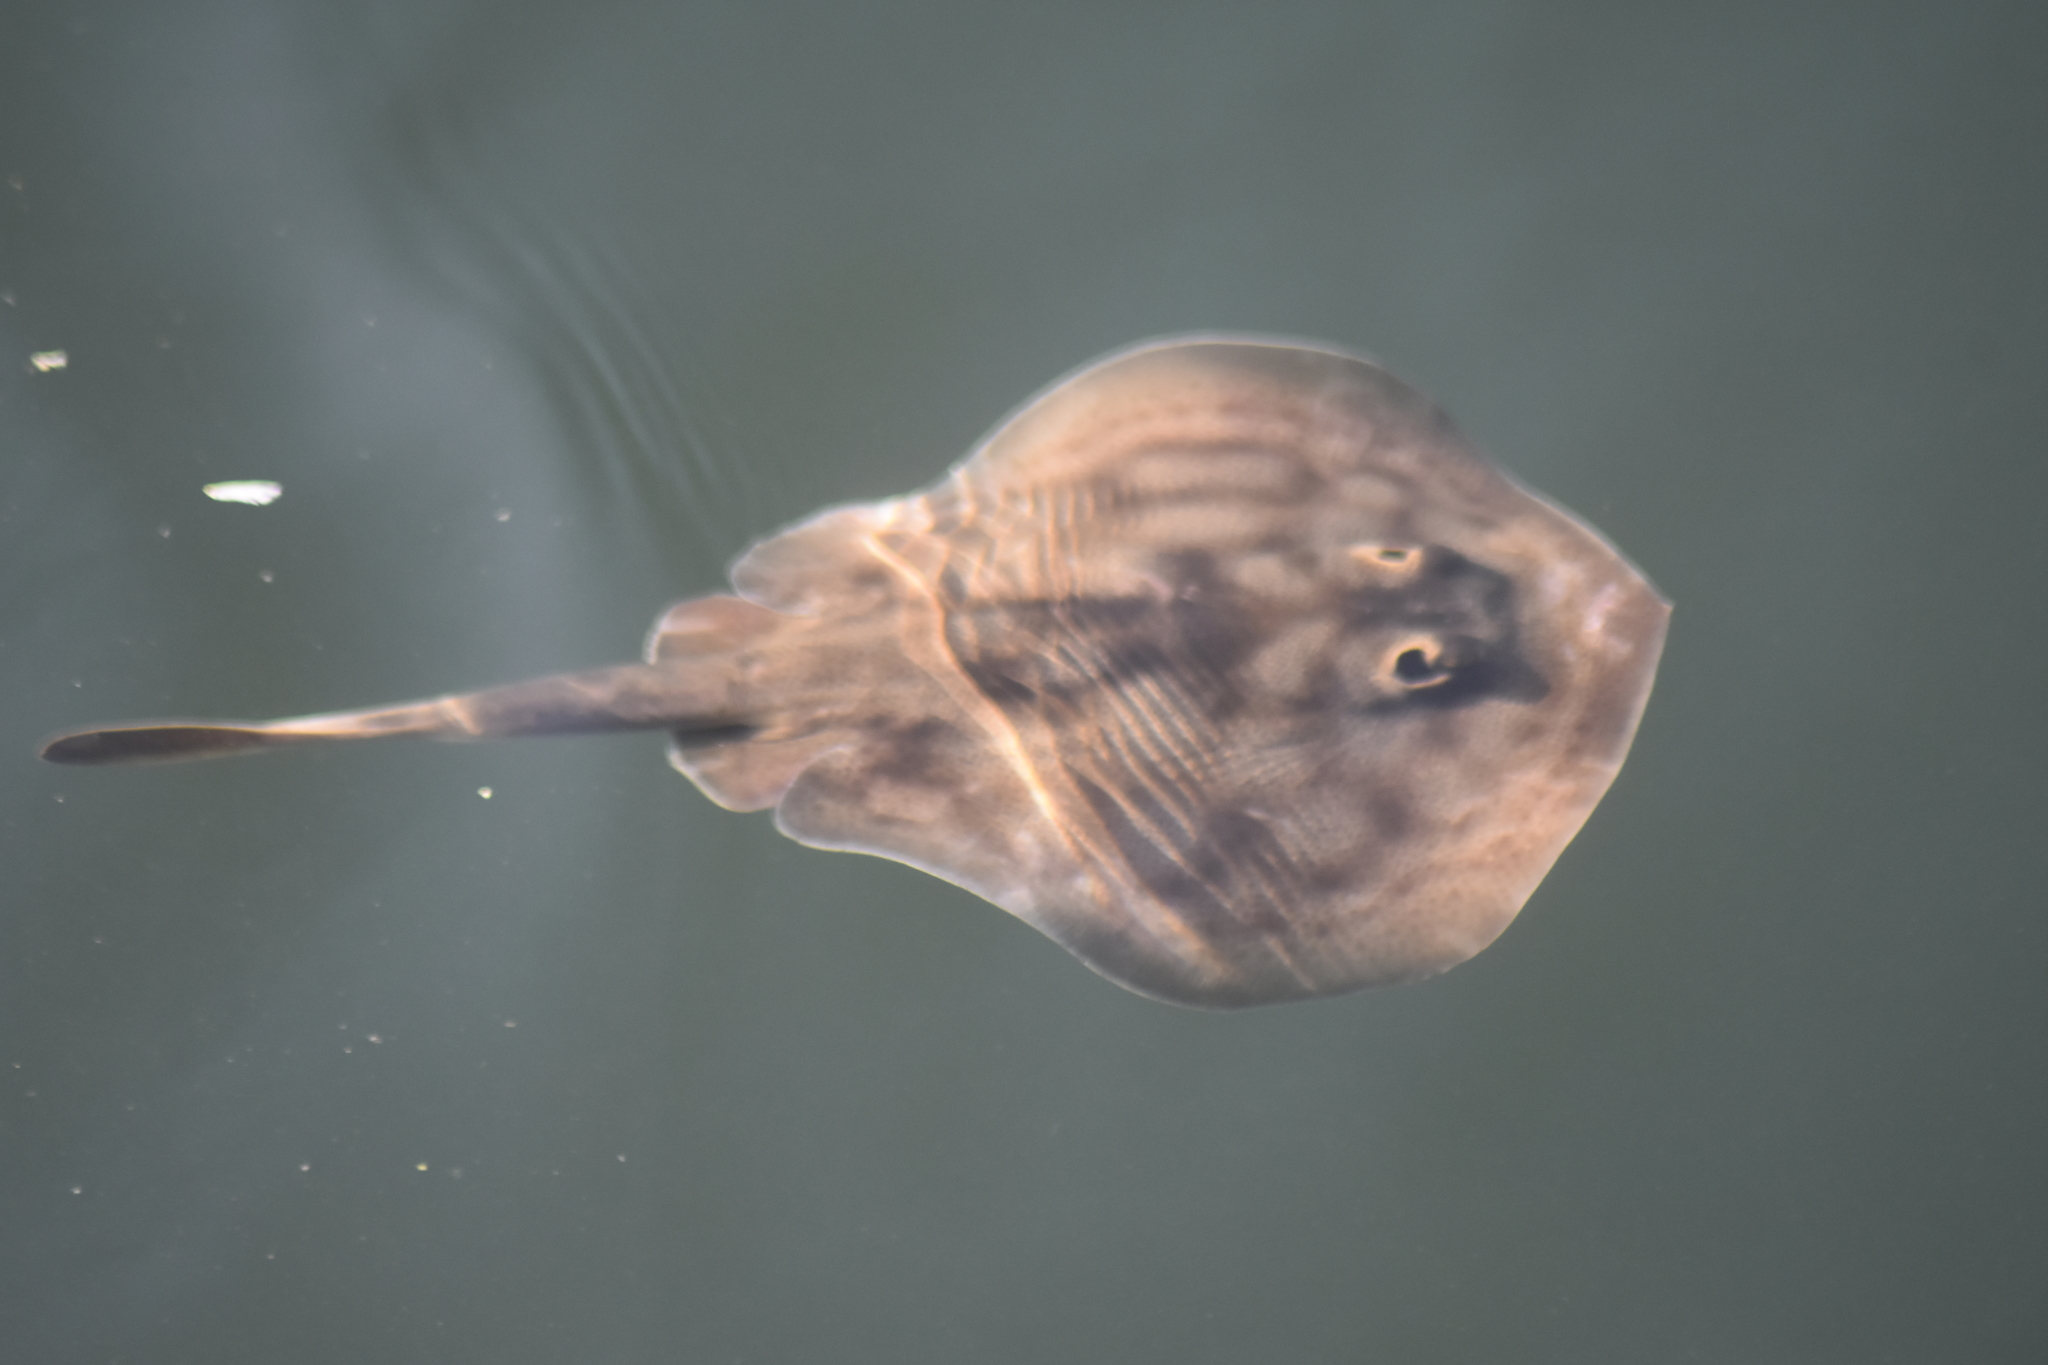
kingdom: Animalia
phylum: Chordata
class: Elasmobranchii
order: Myliobatiformes
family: Urotrygonidae
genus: Urobatis
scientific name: Urobatis concentricus
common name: Bull's-eye stingray
